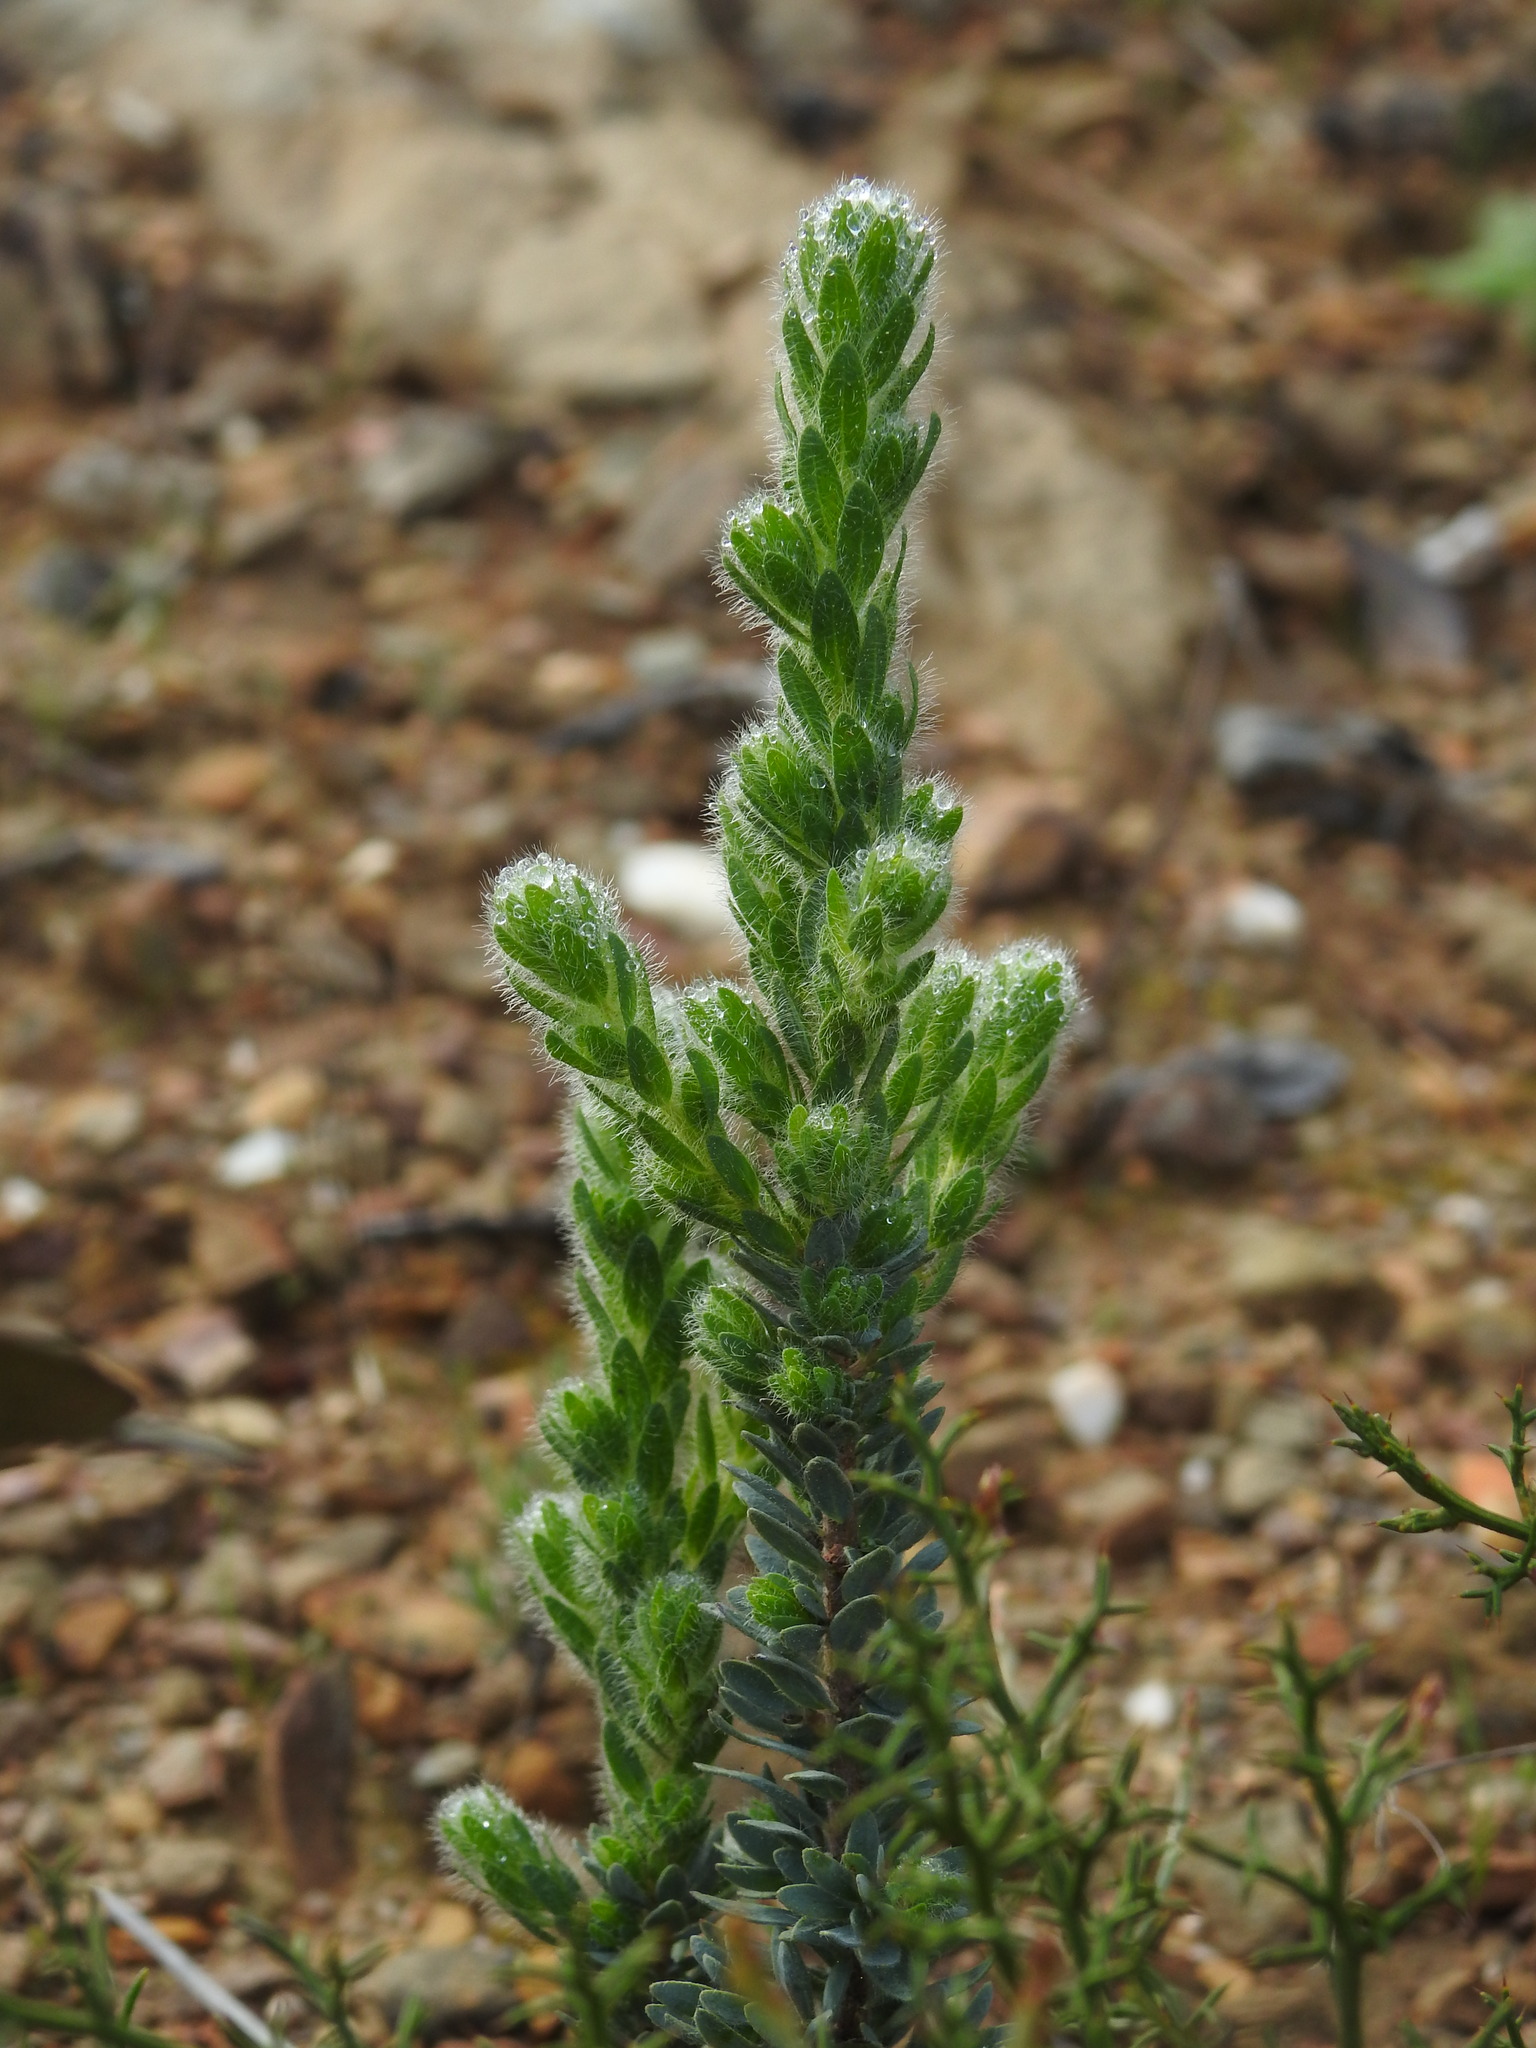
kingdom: Plantae
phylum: Tracheophyta
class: Magnoliopsida
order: Malvales
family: Thymelaeaceae
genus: Thymelaea
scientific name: Thymelaea villosa
